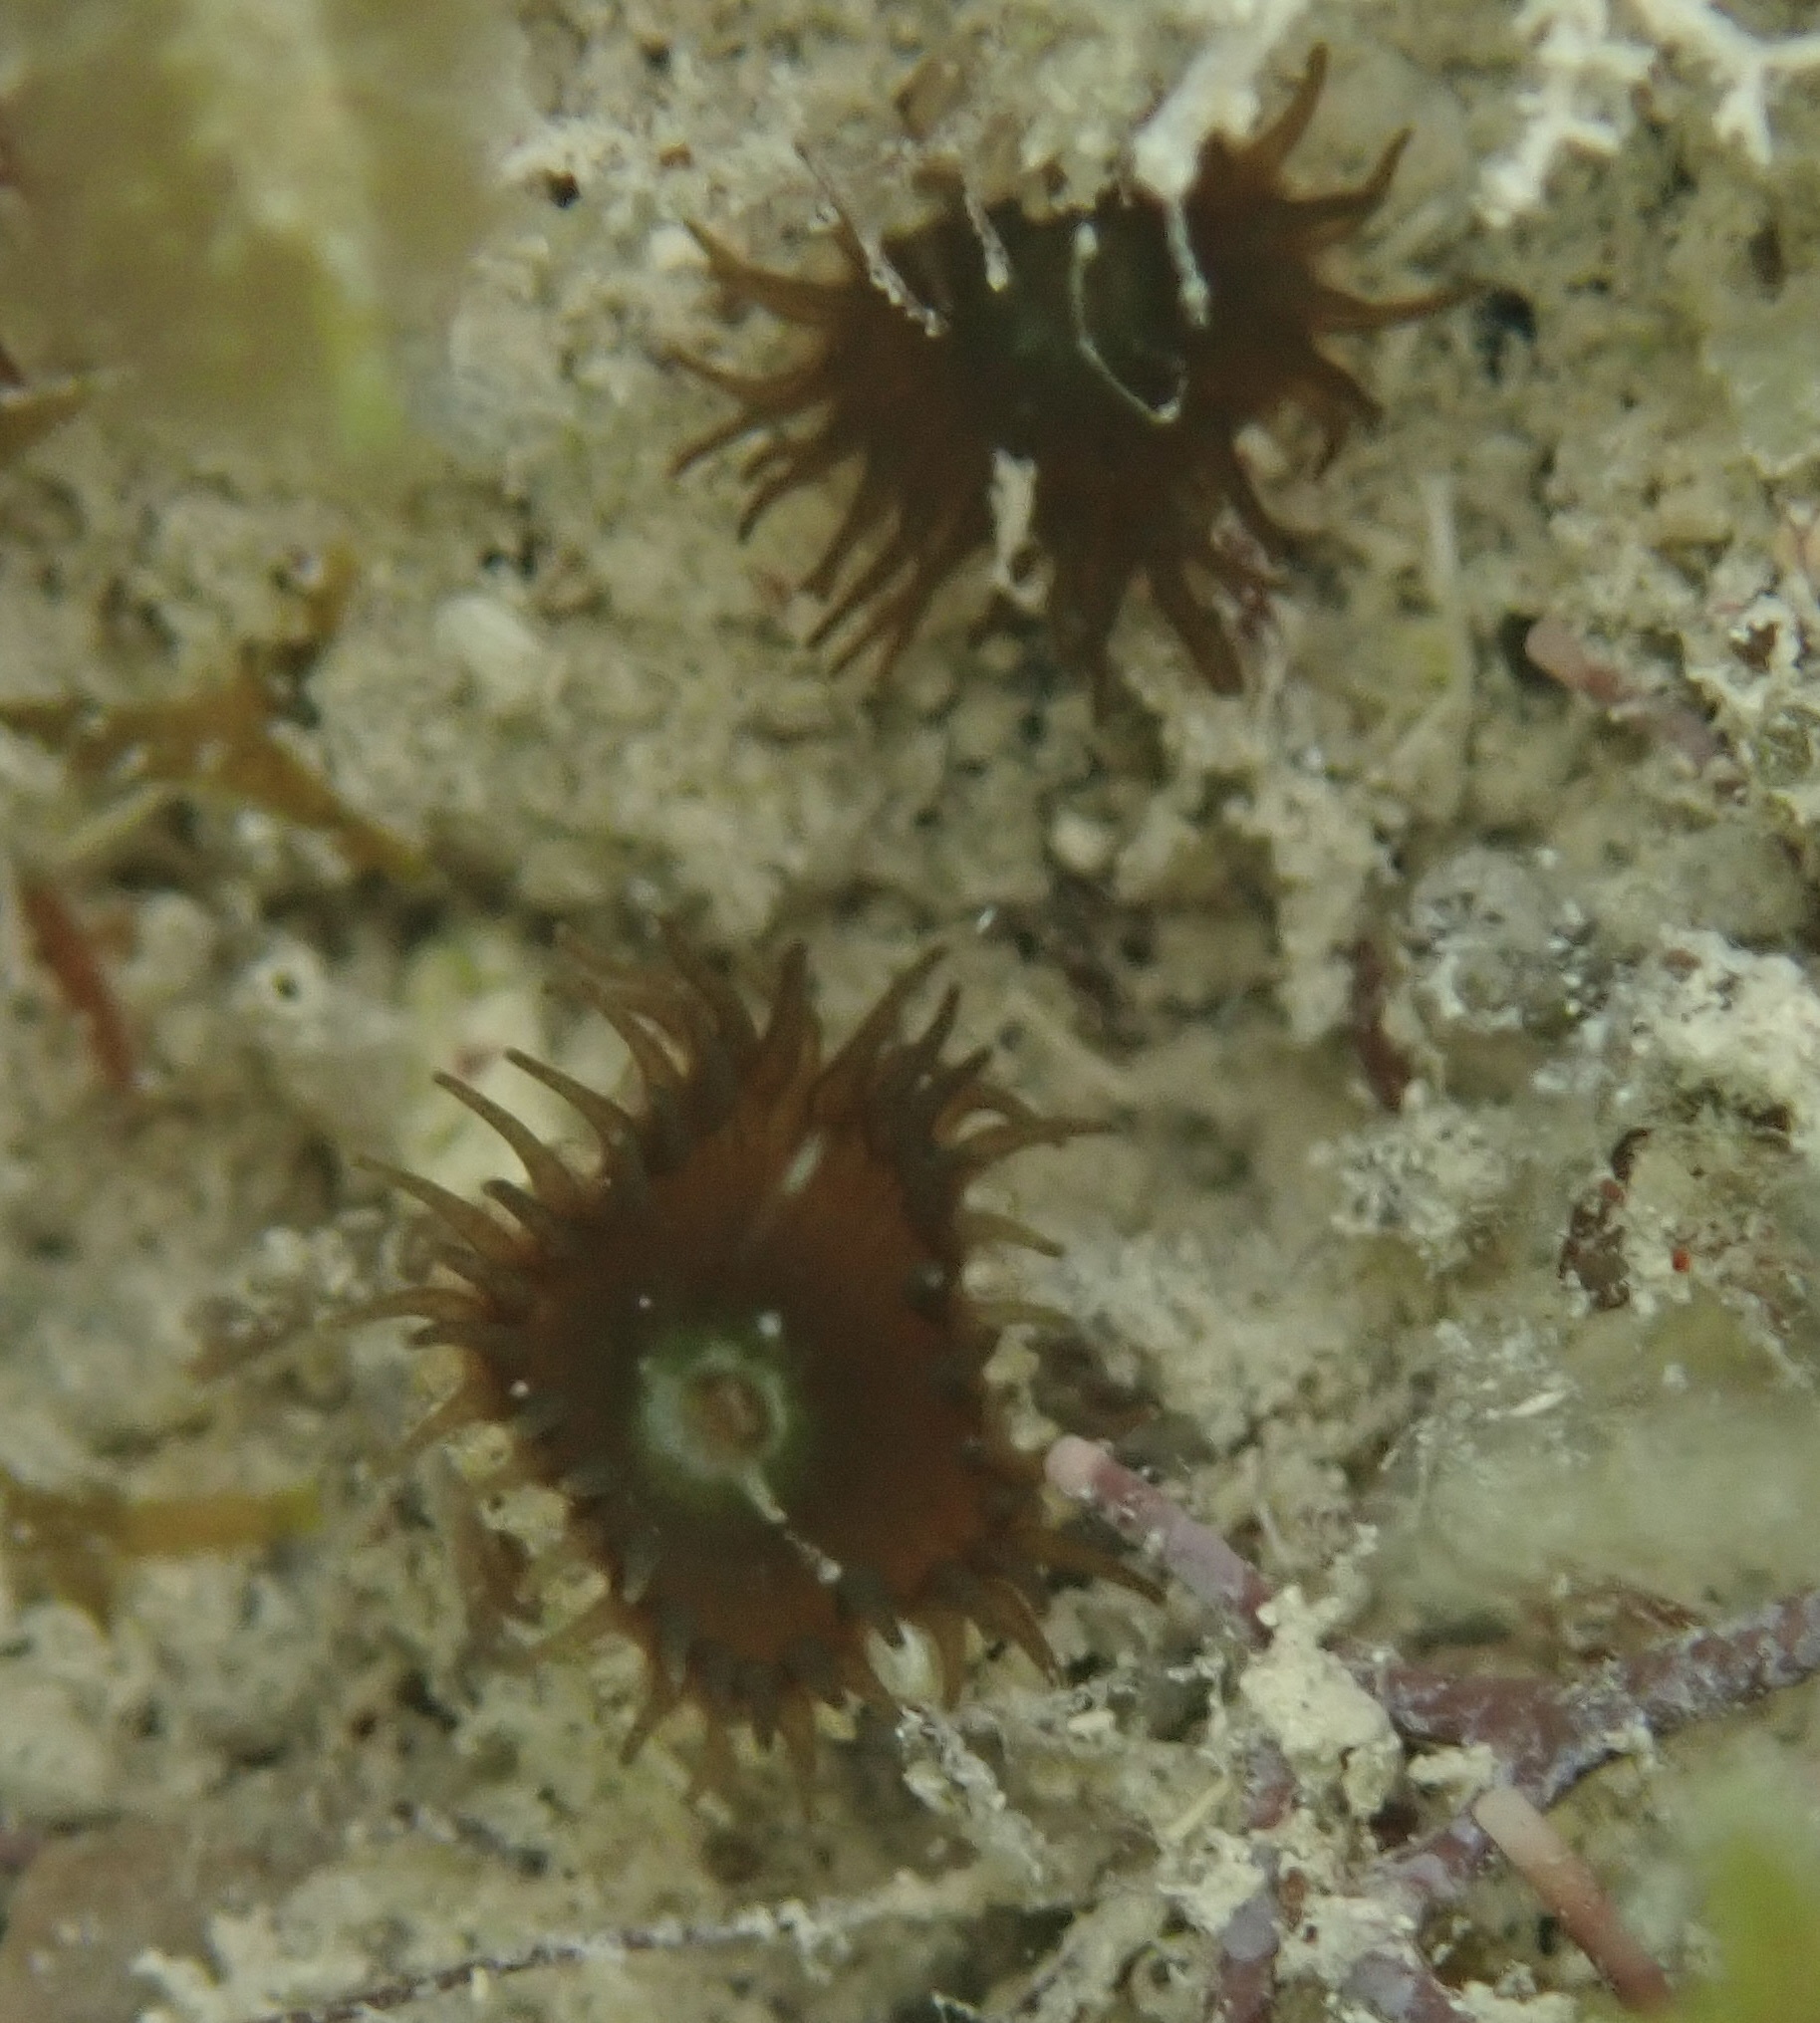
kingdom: Animalia
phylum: Cnidaria
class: Anthozoa
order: Zoantharia
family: Sphenopidae
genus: Palythoa
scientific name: Palythoa grandiflora
